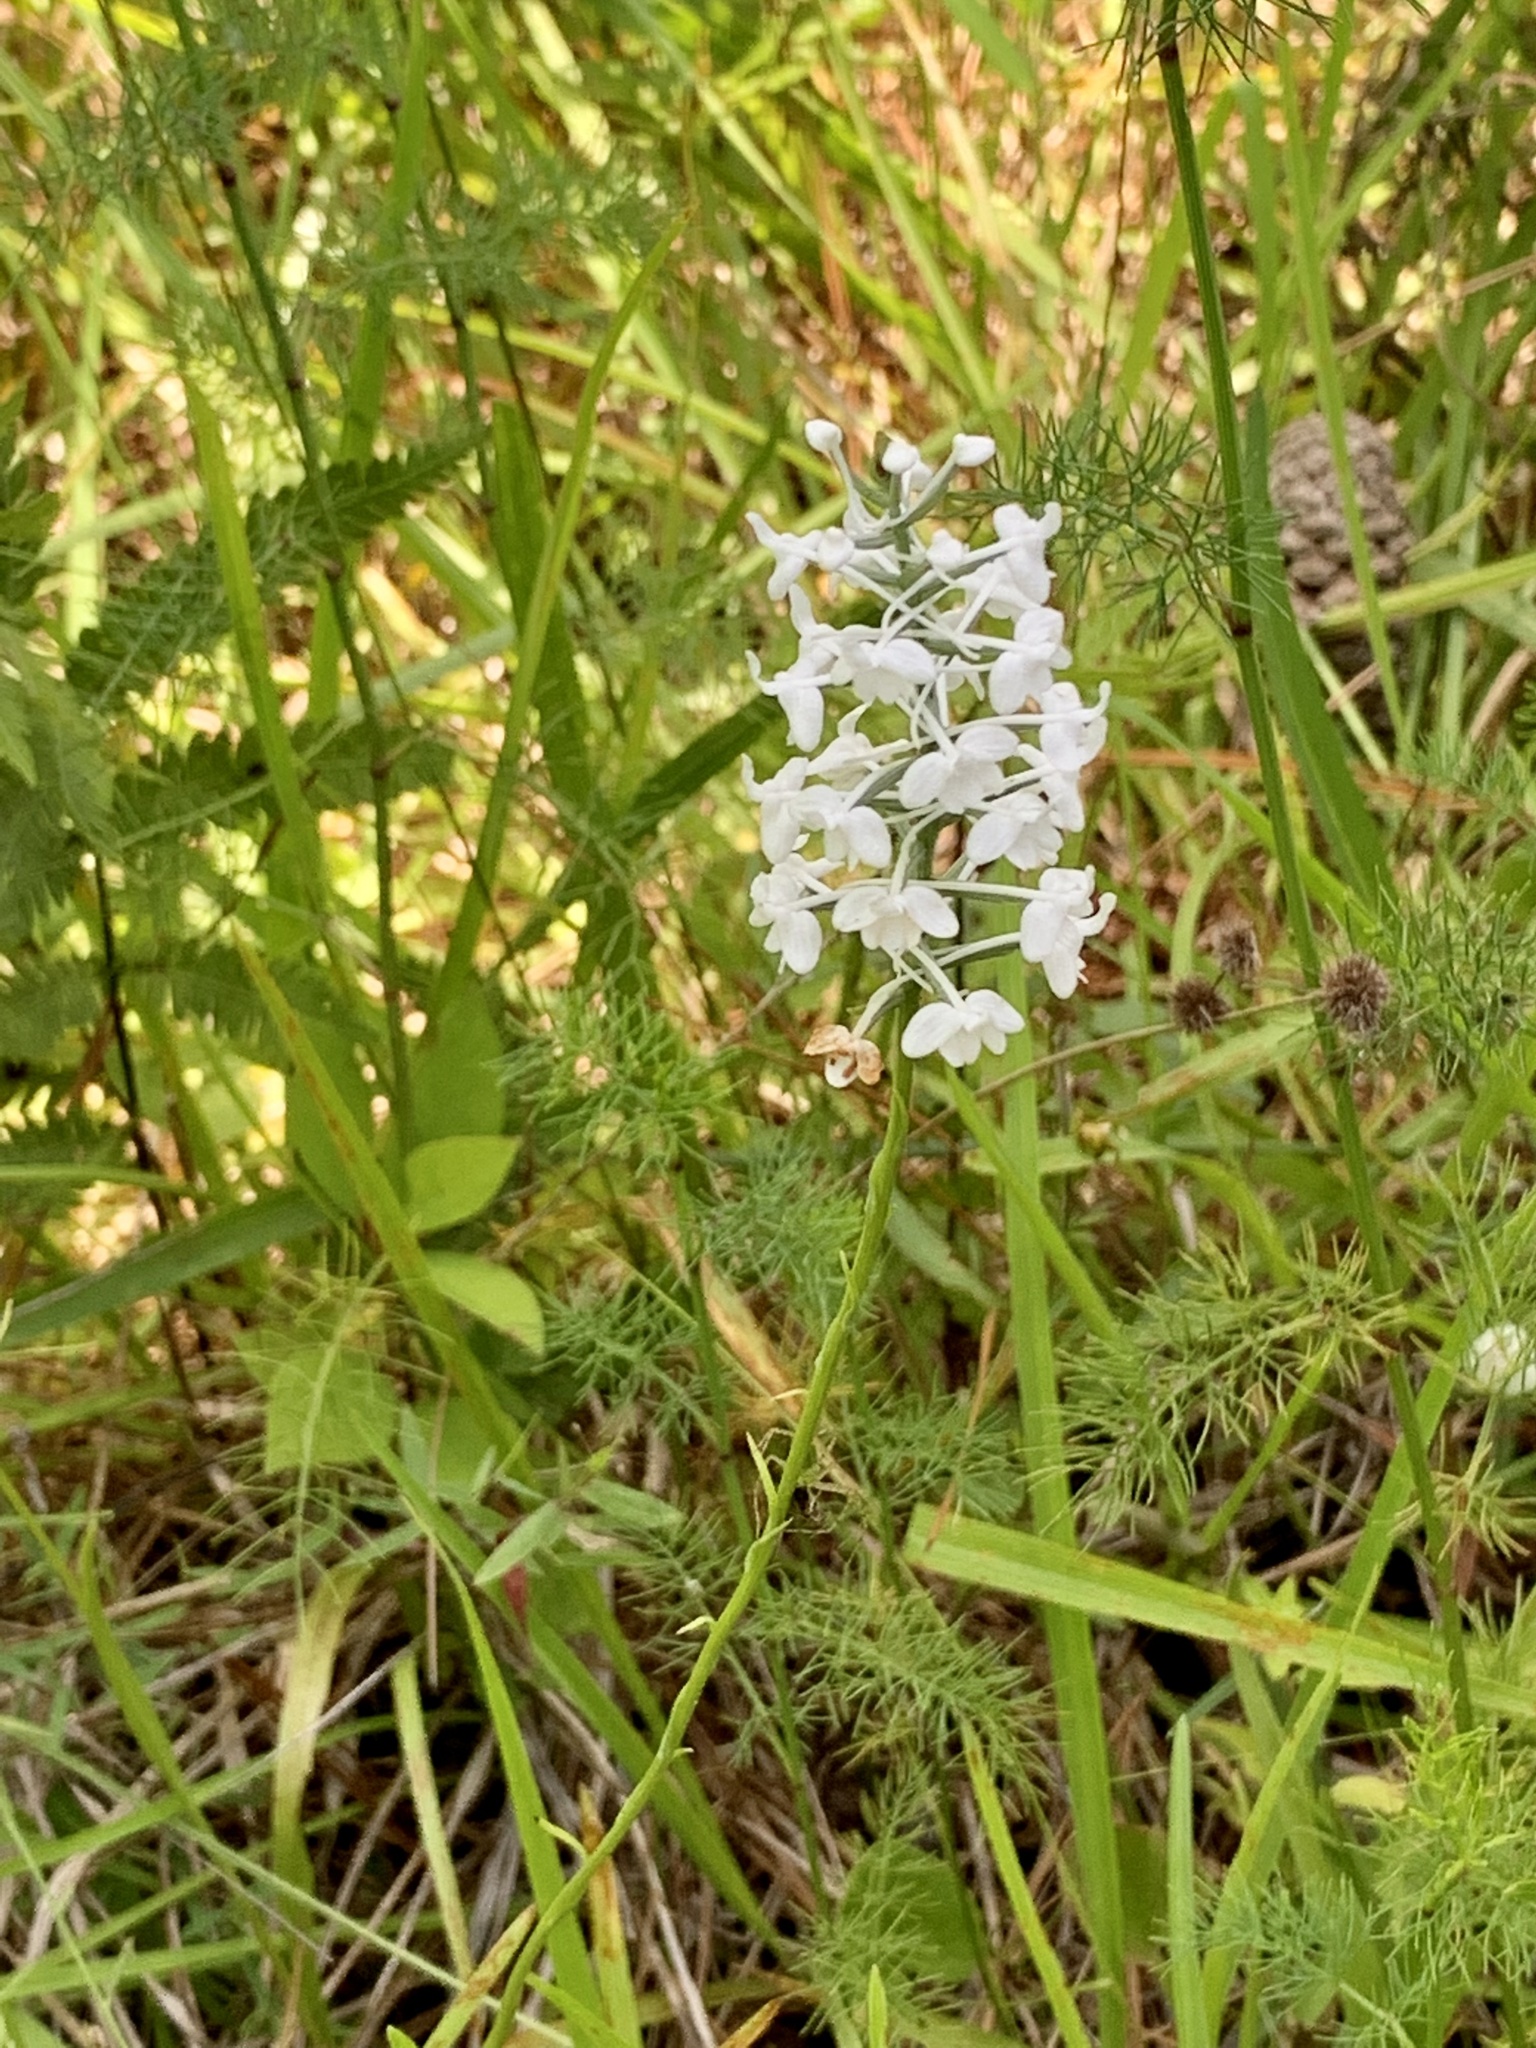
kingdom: Plantae
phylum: Tracheophyta
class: Liliopsida
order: Asparagales
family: Orchidaceae
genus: Platanthera
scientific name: Platanthera nivea
